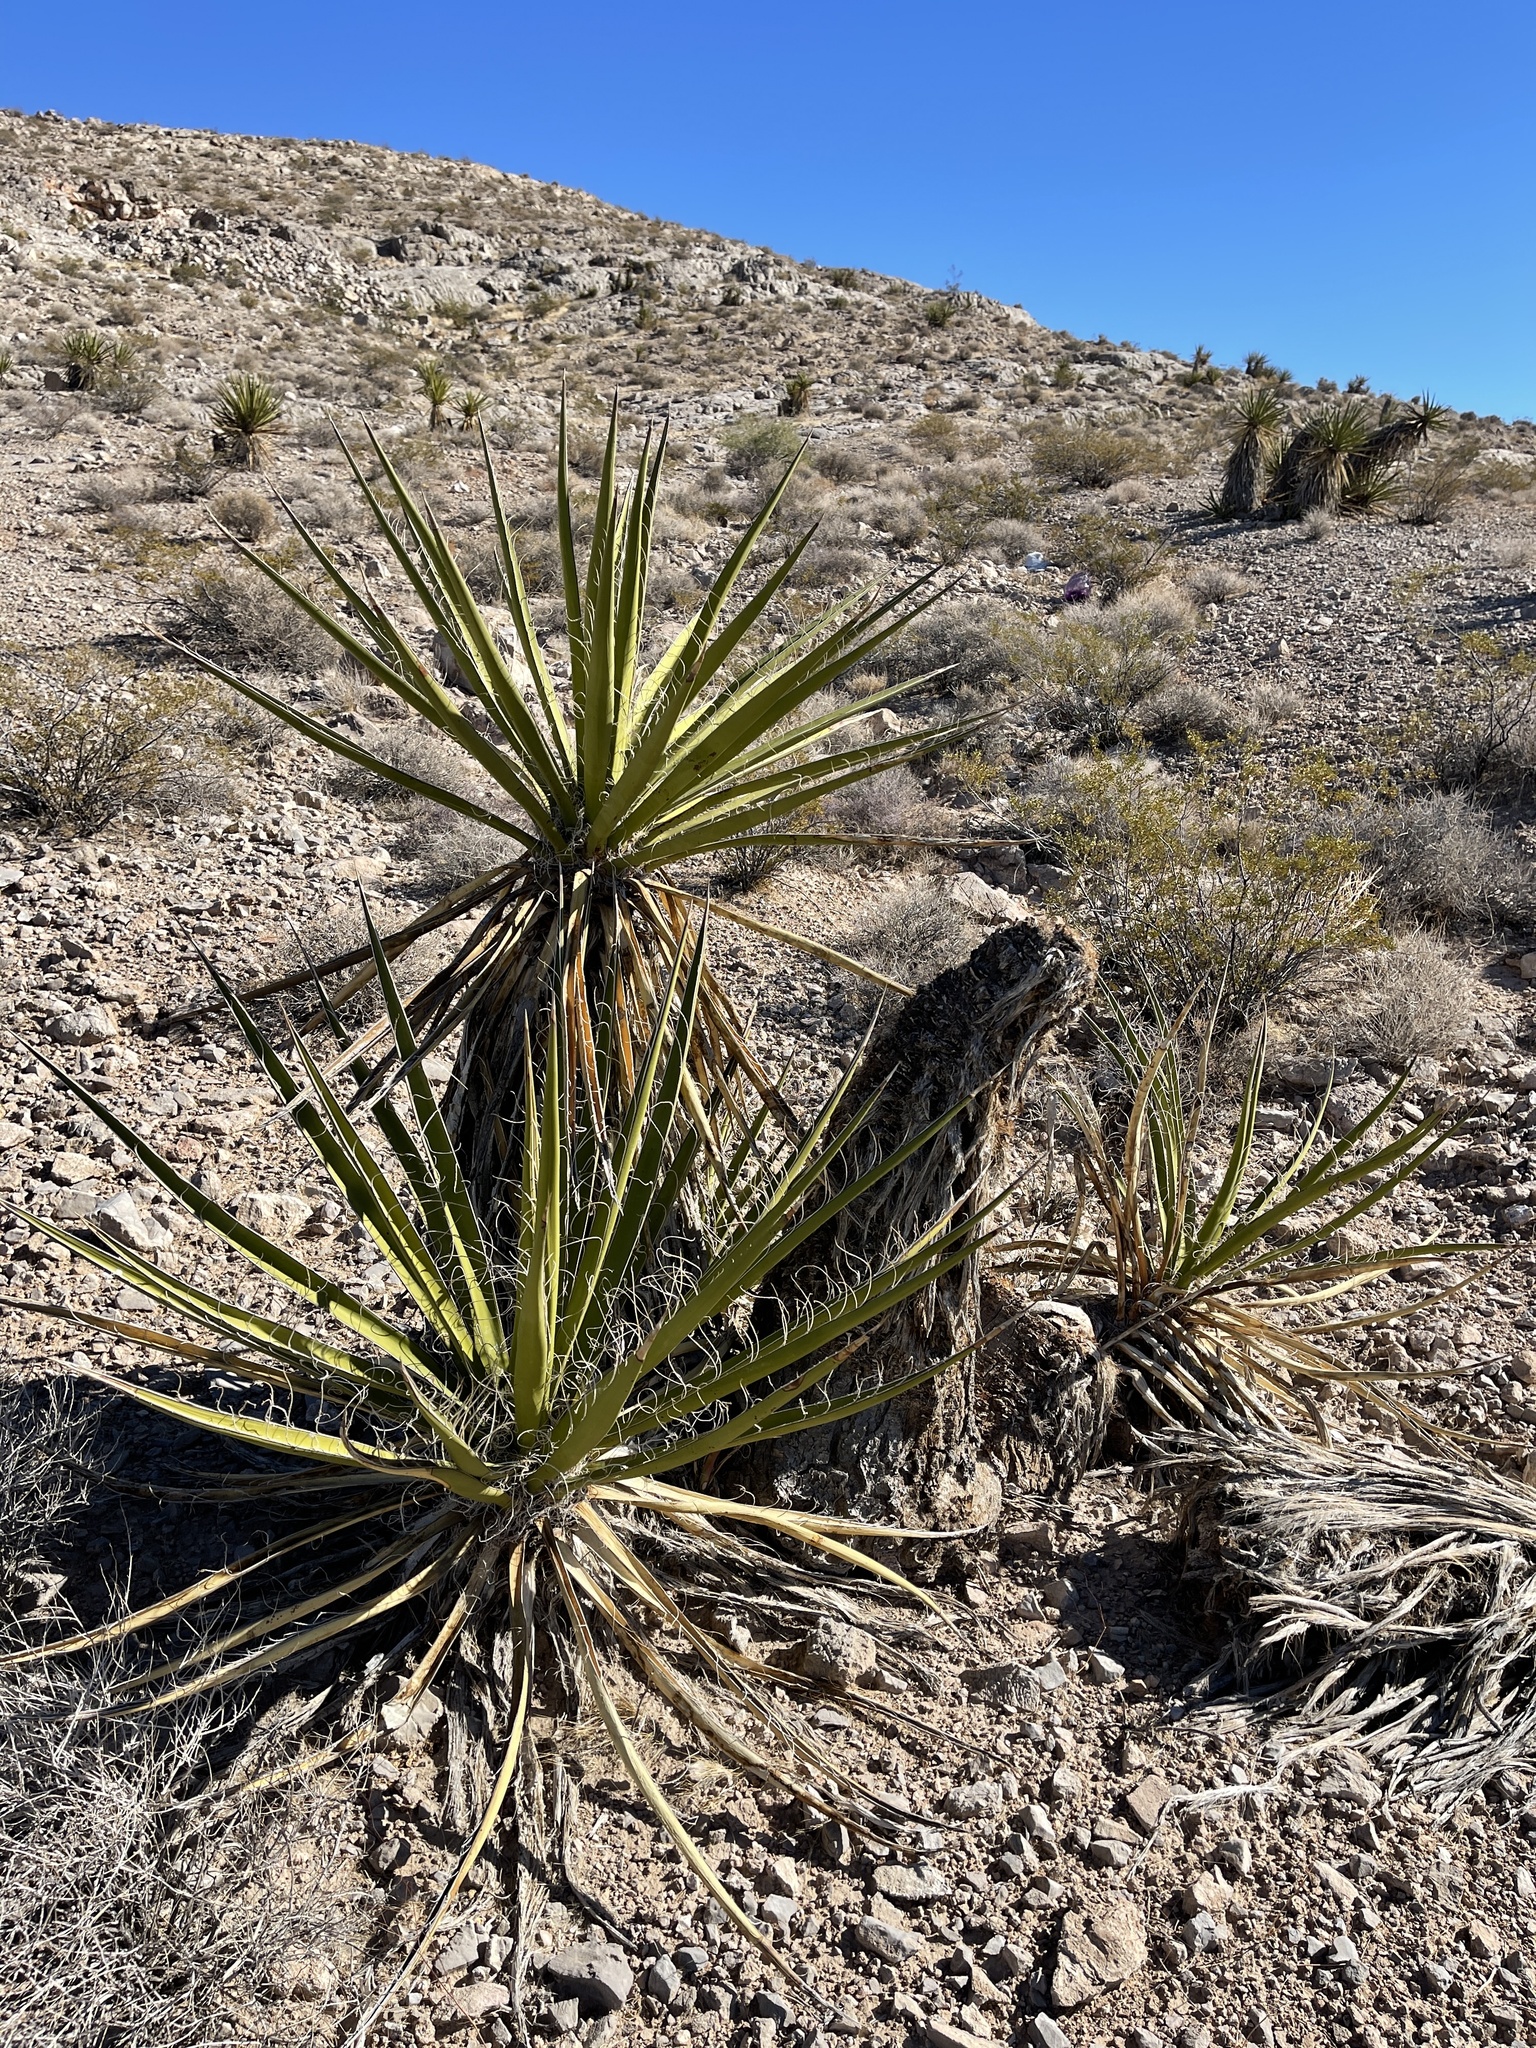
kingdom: Plantae
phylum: Tracheophyta
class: Liliopsida
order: Asparagales
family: Asparagaceae
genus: Yucca
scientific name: Yucca schidigera
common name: Mojave yucca
